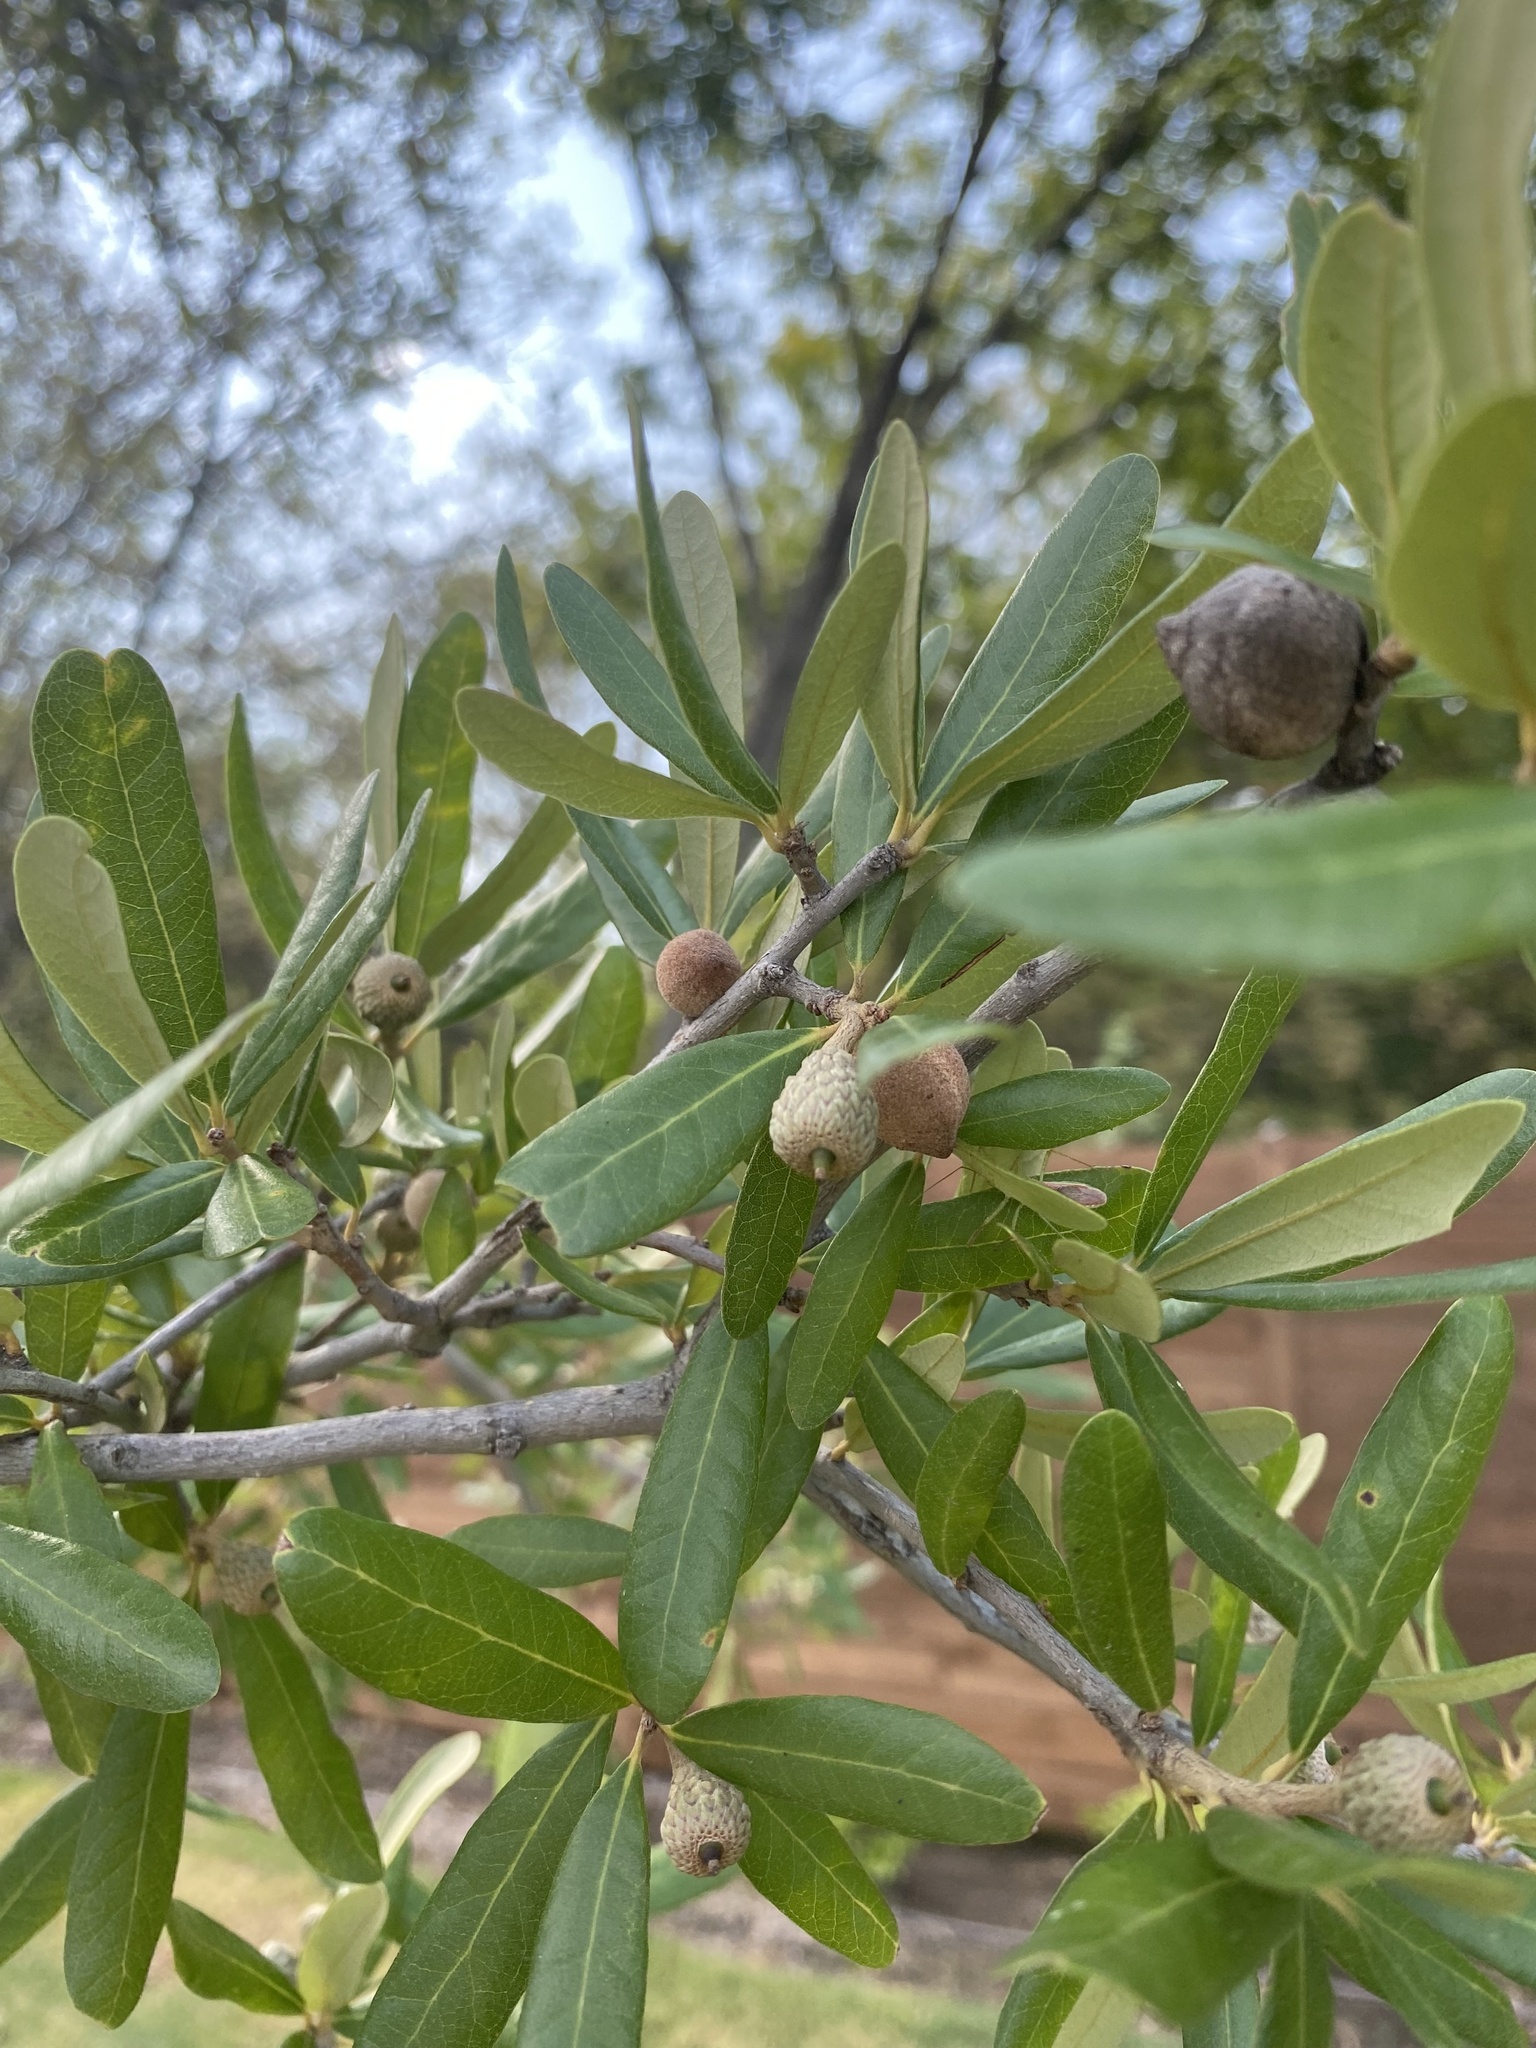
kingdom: Animalia
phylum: Arthropoda
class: Insecta
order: Hymenoptera
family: Cynipidae
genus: Disholcaspis
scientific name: Disholcaspis
